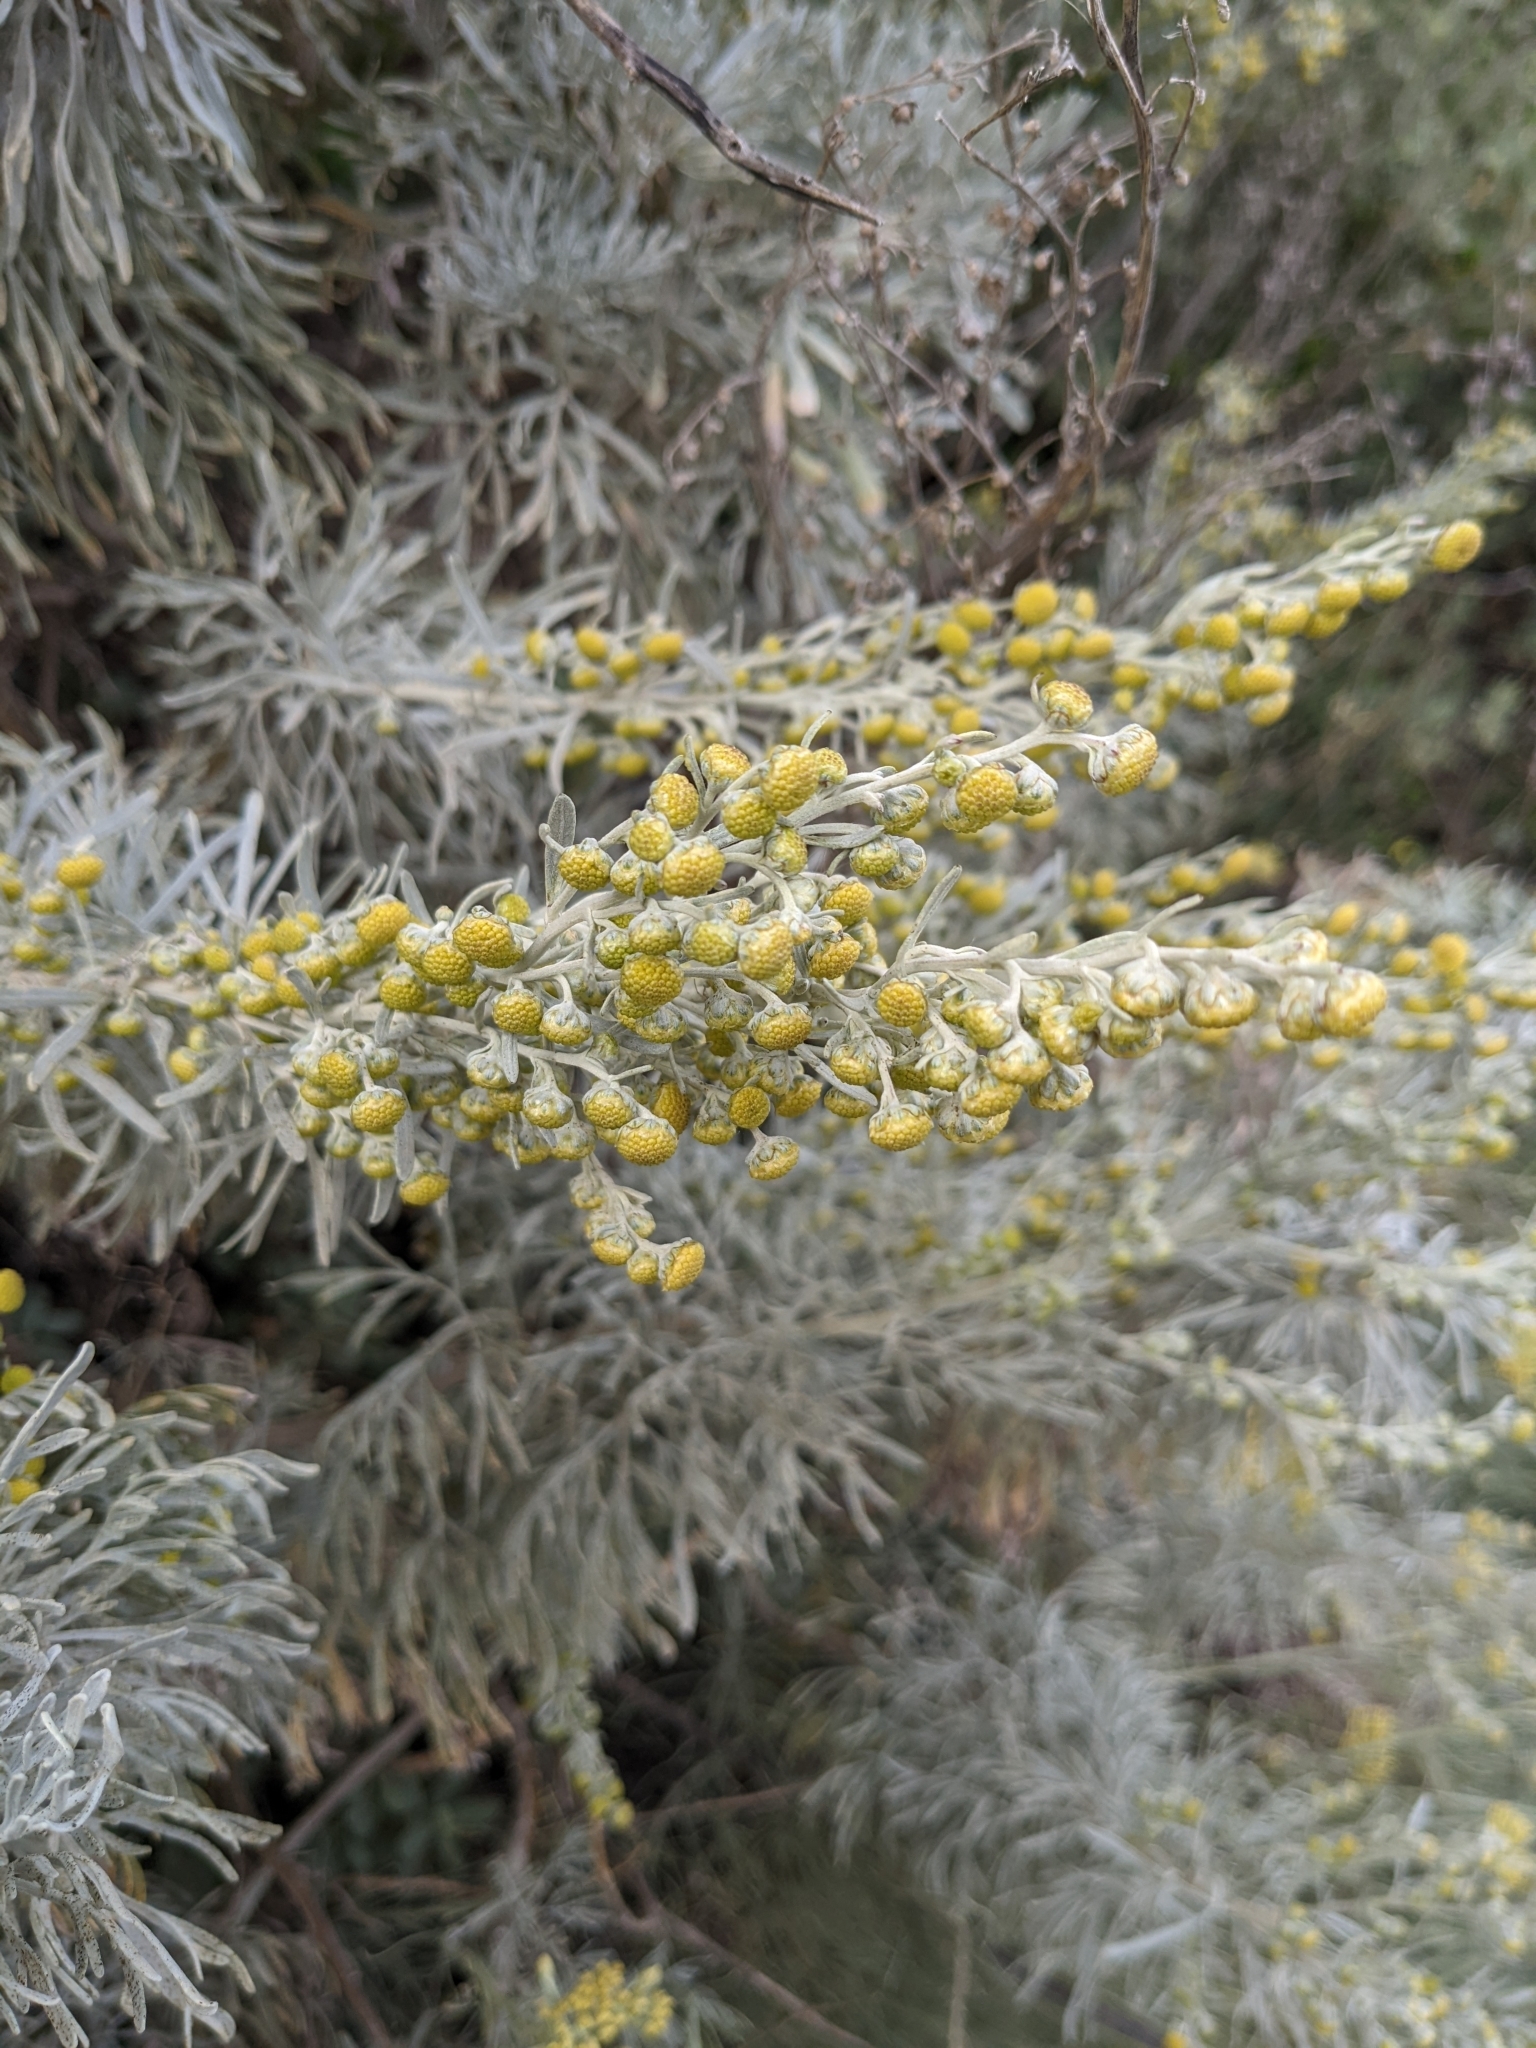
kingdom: Plantae
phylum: Tracheophyta
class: Magnoliopsida
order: Asterales
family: Asteraceae
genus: Artemisia
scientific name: Artemisia arborescens
